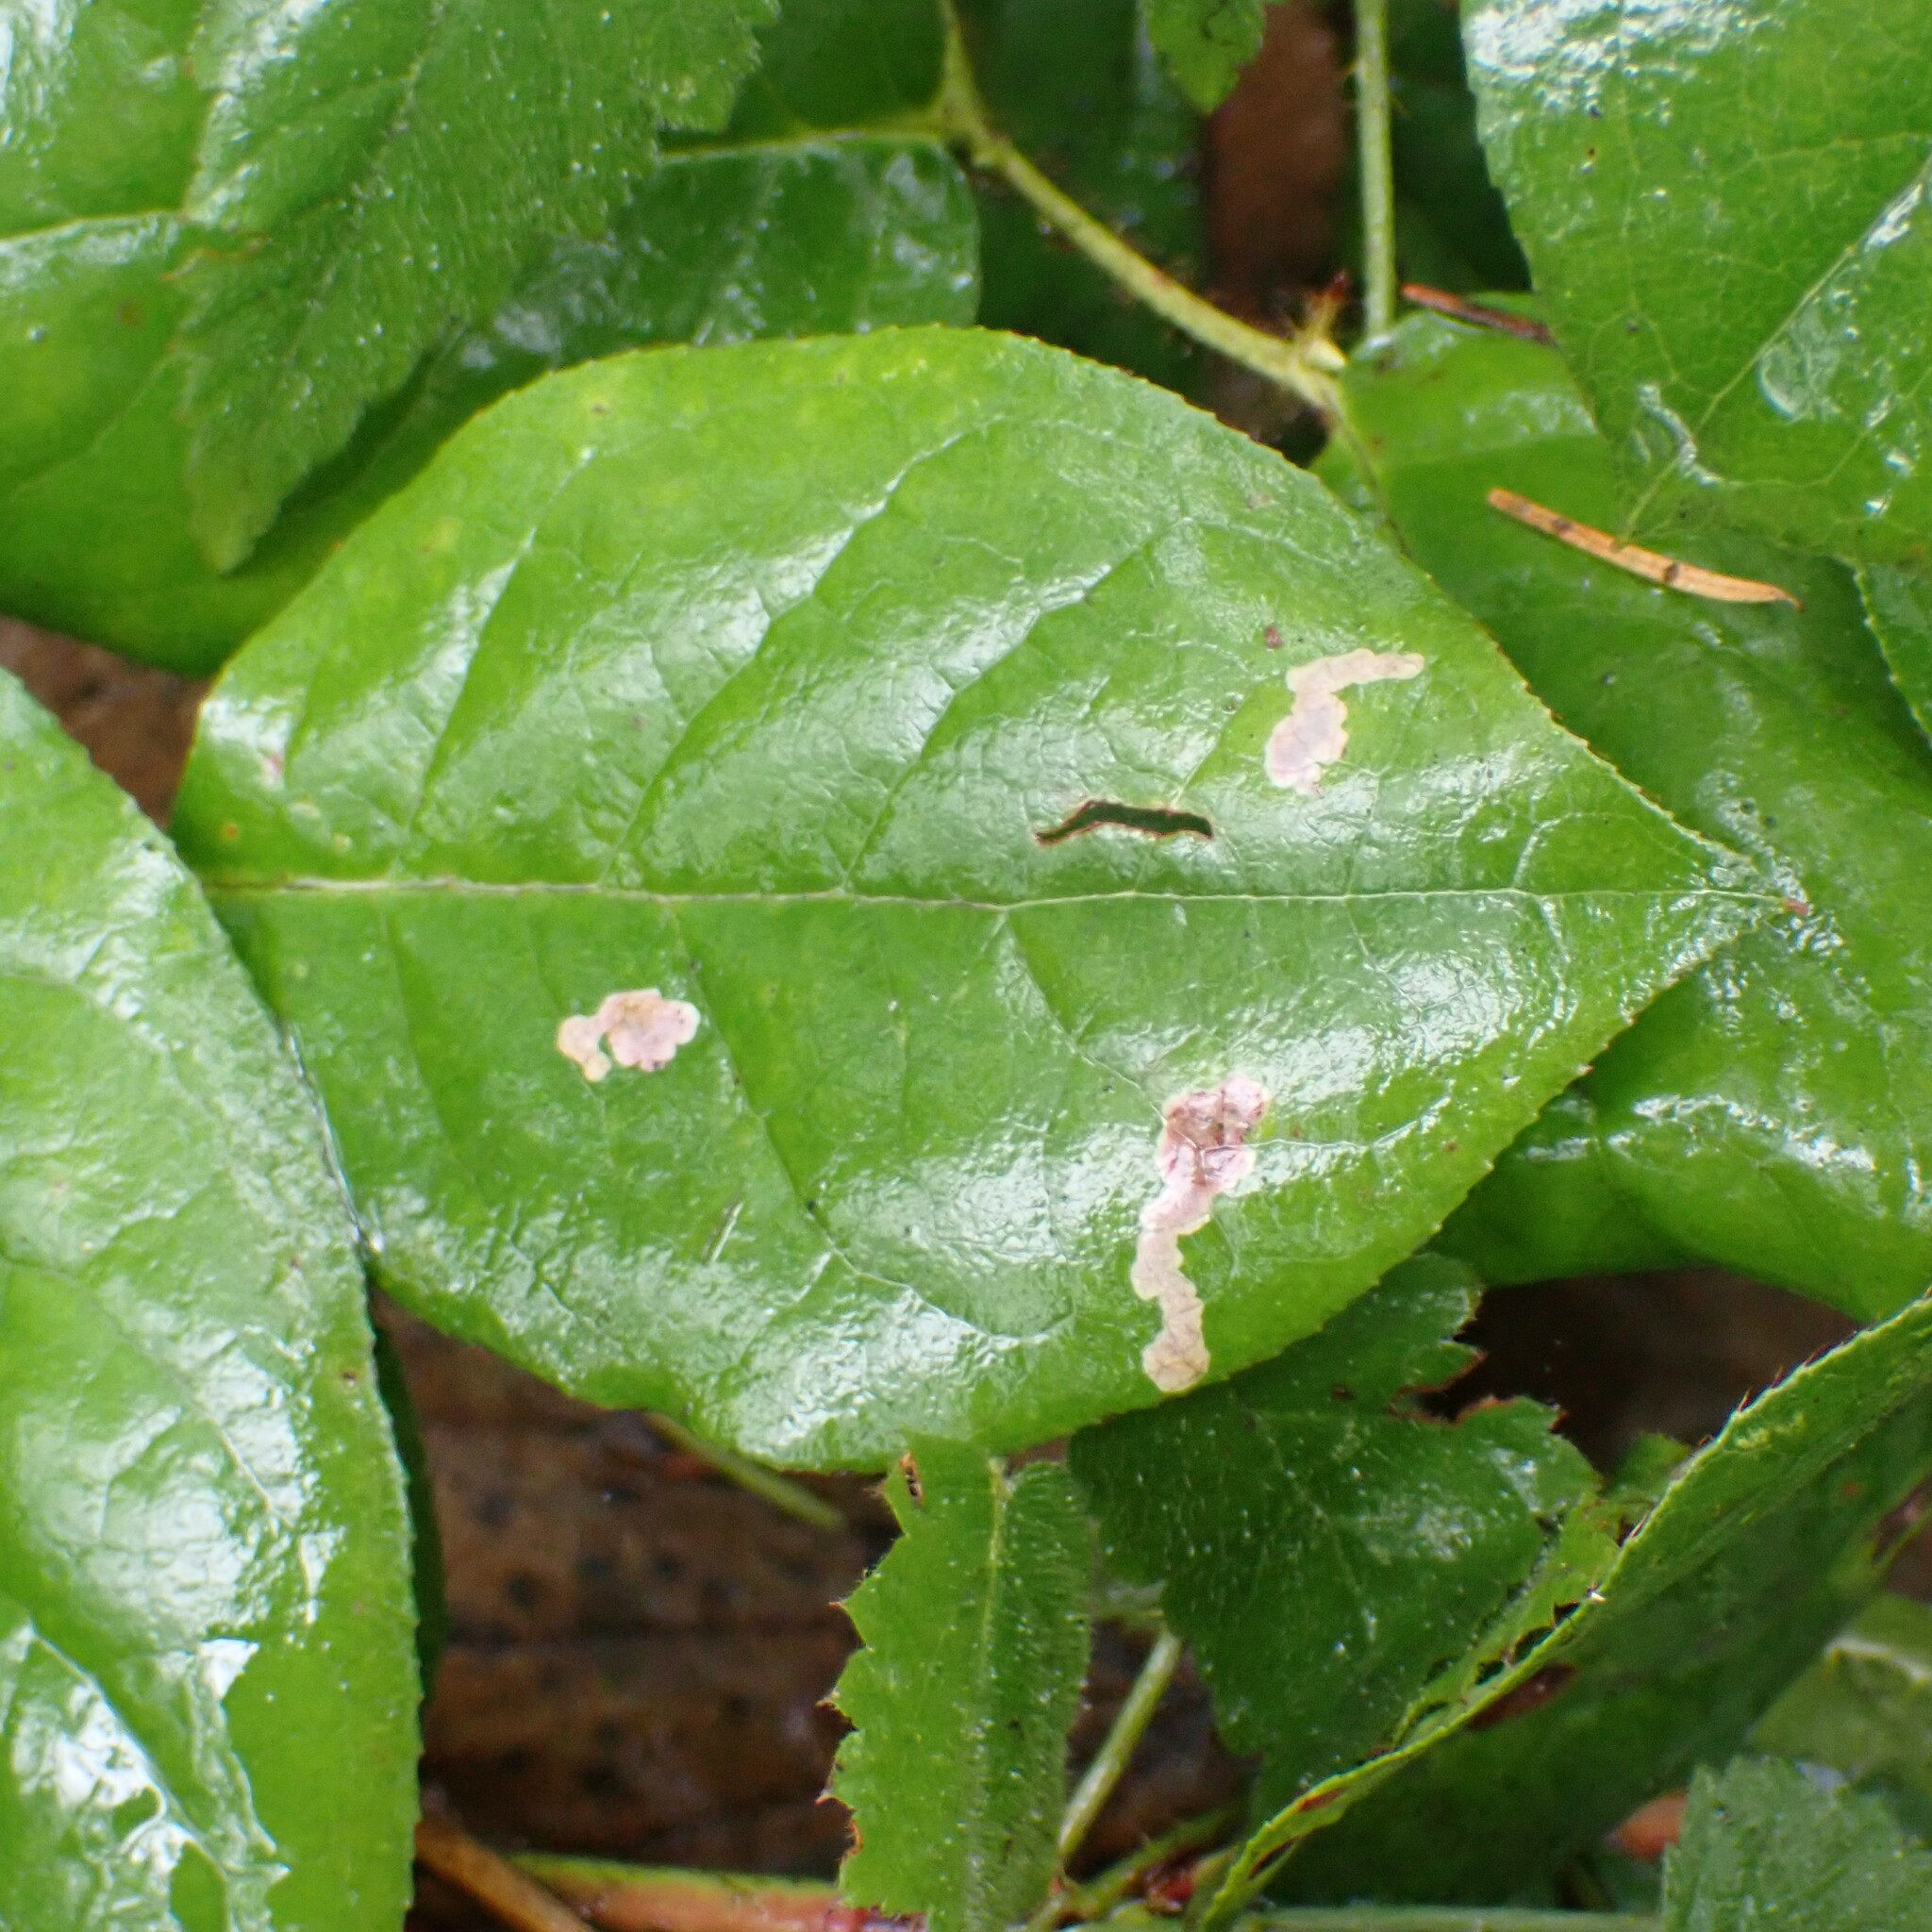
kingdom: Animalia
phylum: Arthropoda
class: Insecta
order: Lepidoptera
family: Gracillariidae
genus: Cameraria
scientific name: Cameraria gaultheriella
